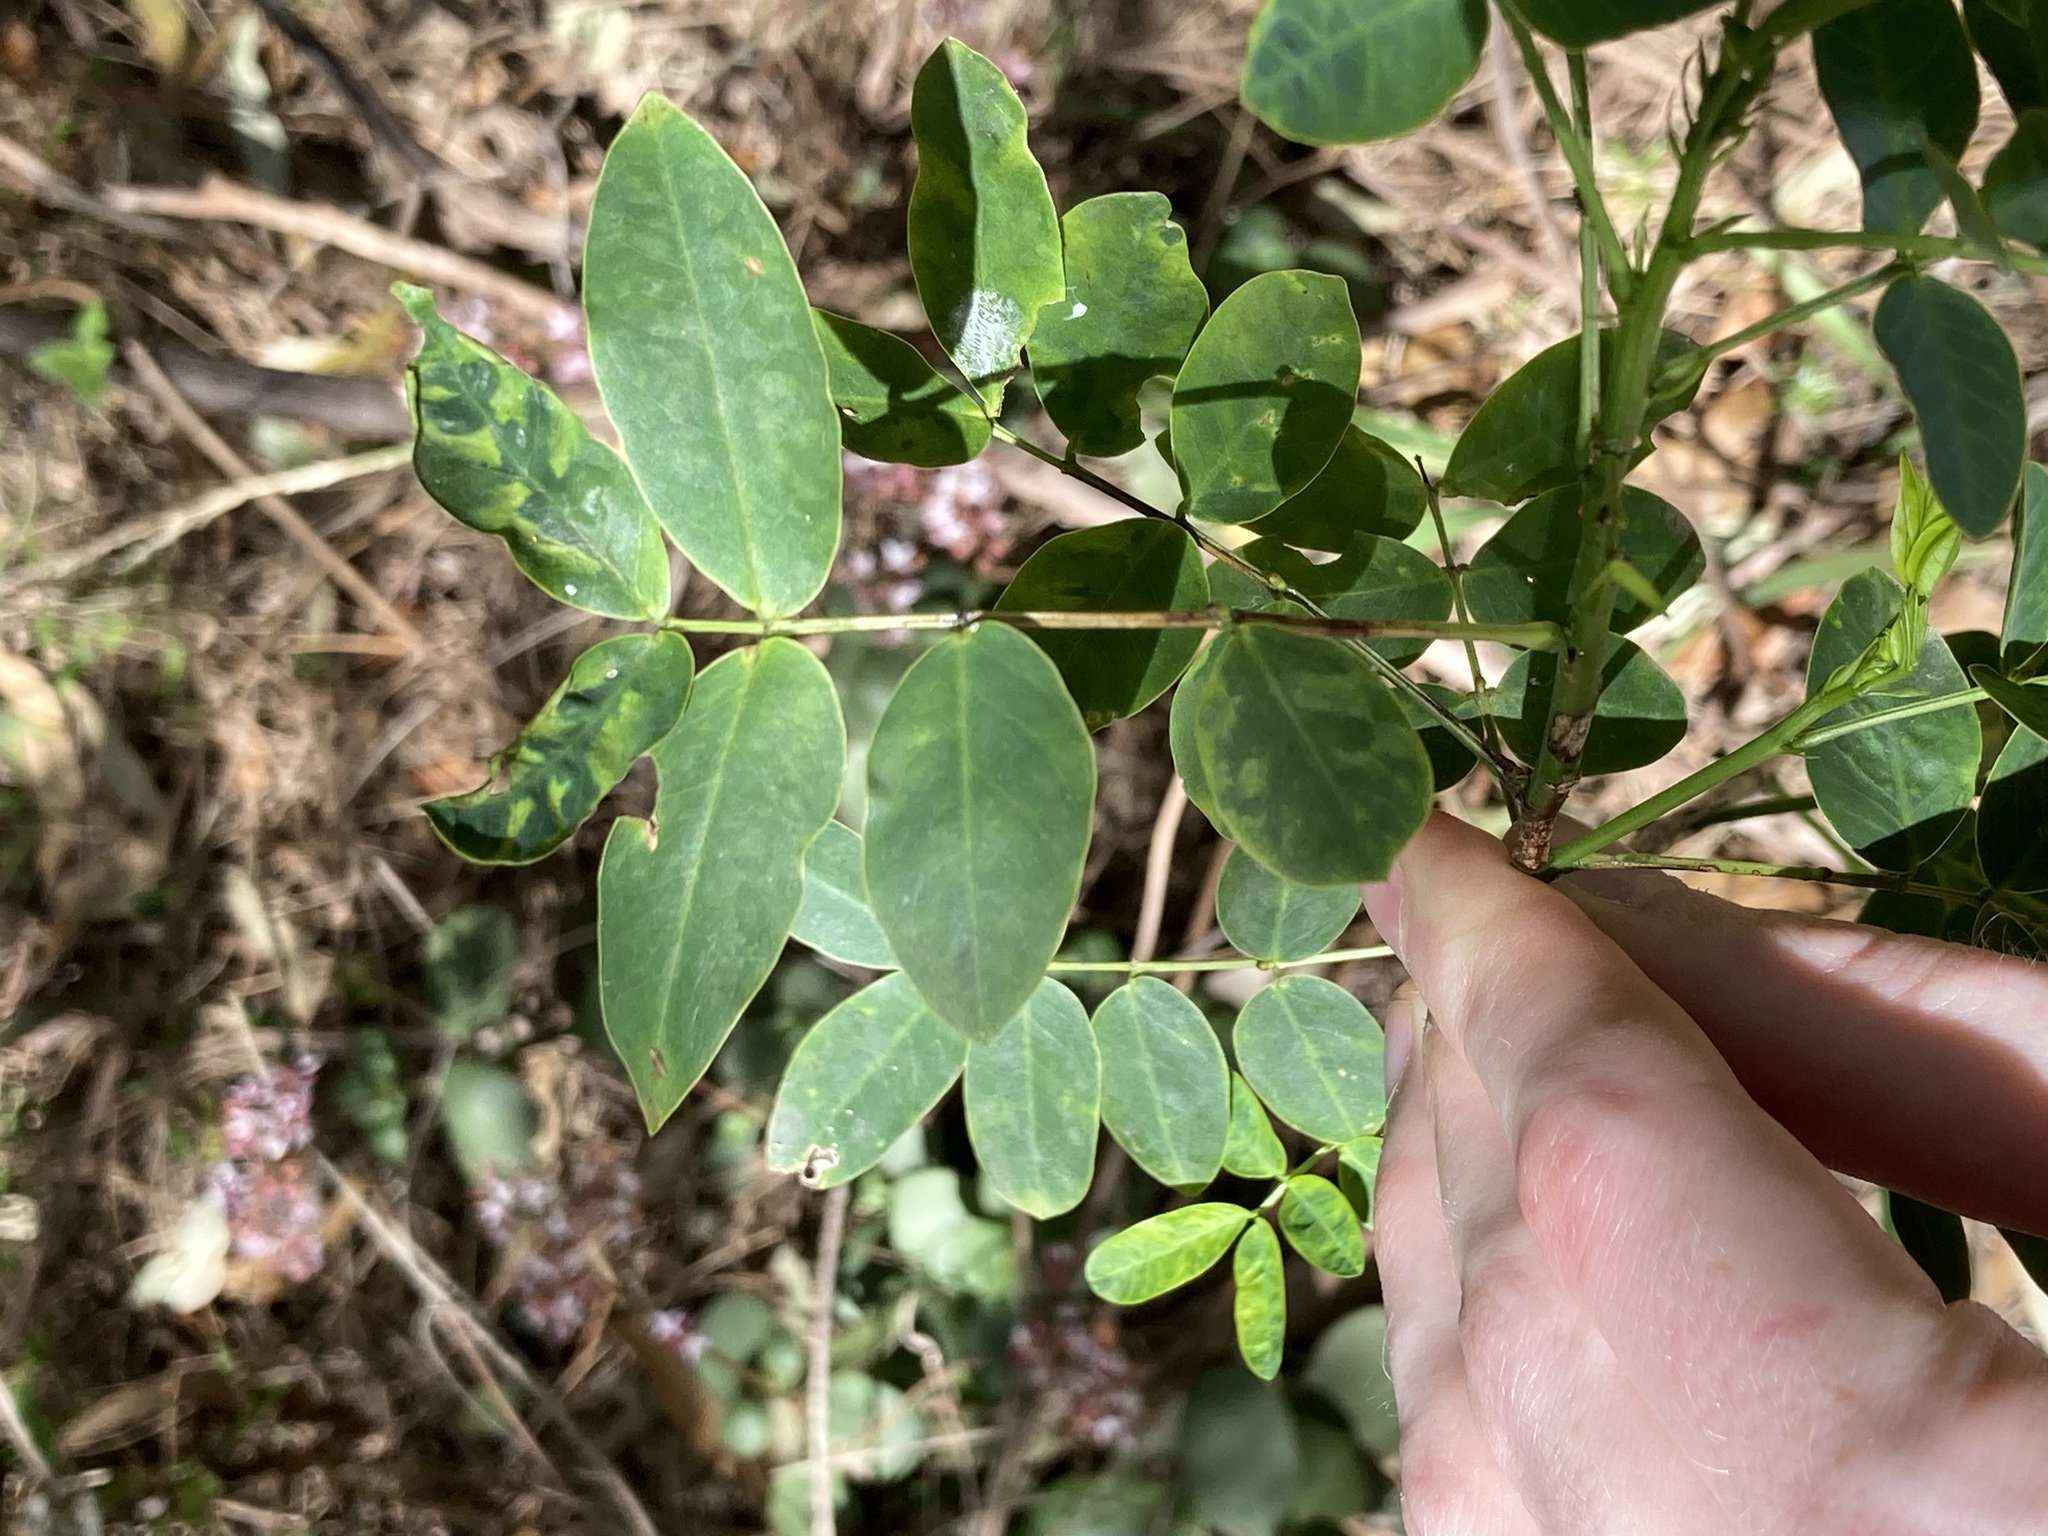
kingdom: Plantae
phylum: Tracheophyta
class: Magnoliopsida
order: Fabales
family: Fabaceae
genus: Senna
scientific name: Senna pendula
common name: Easter cassia
